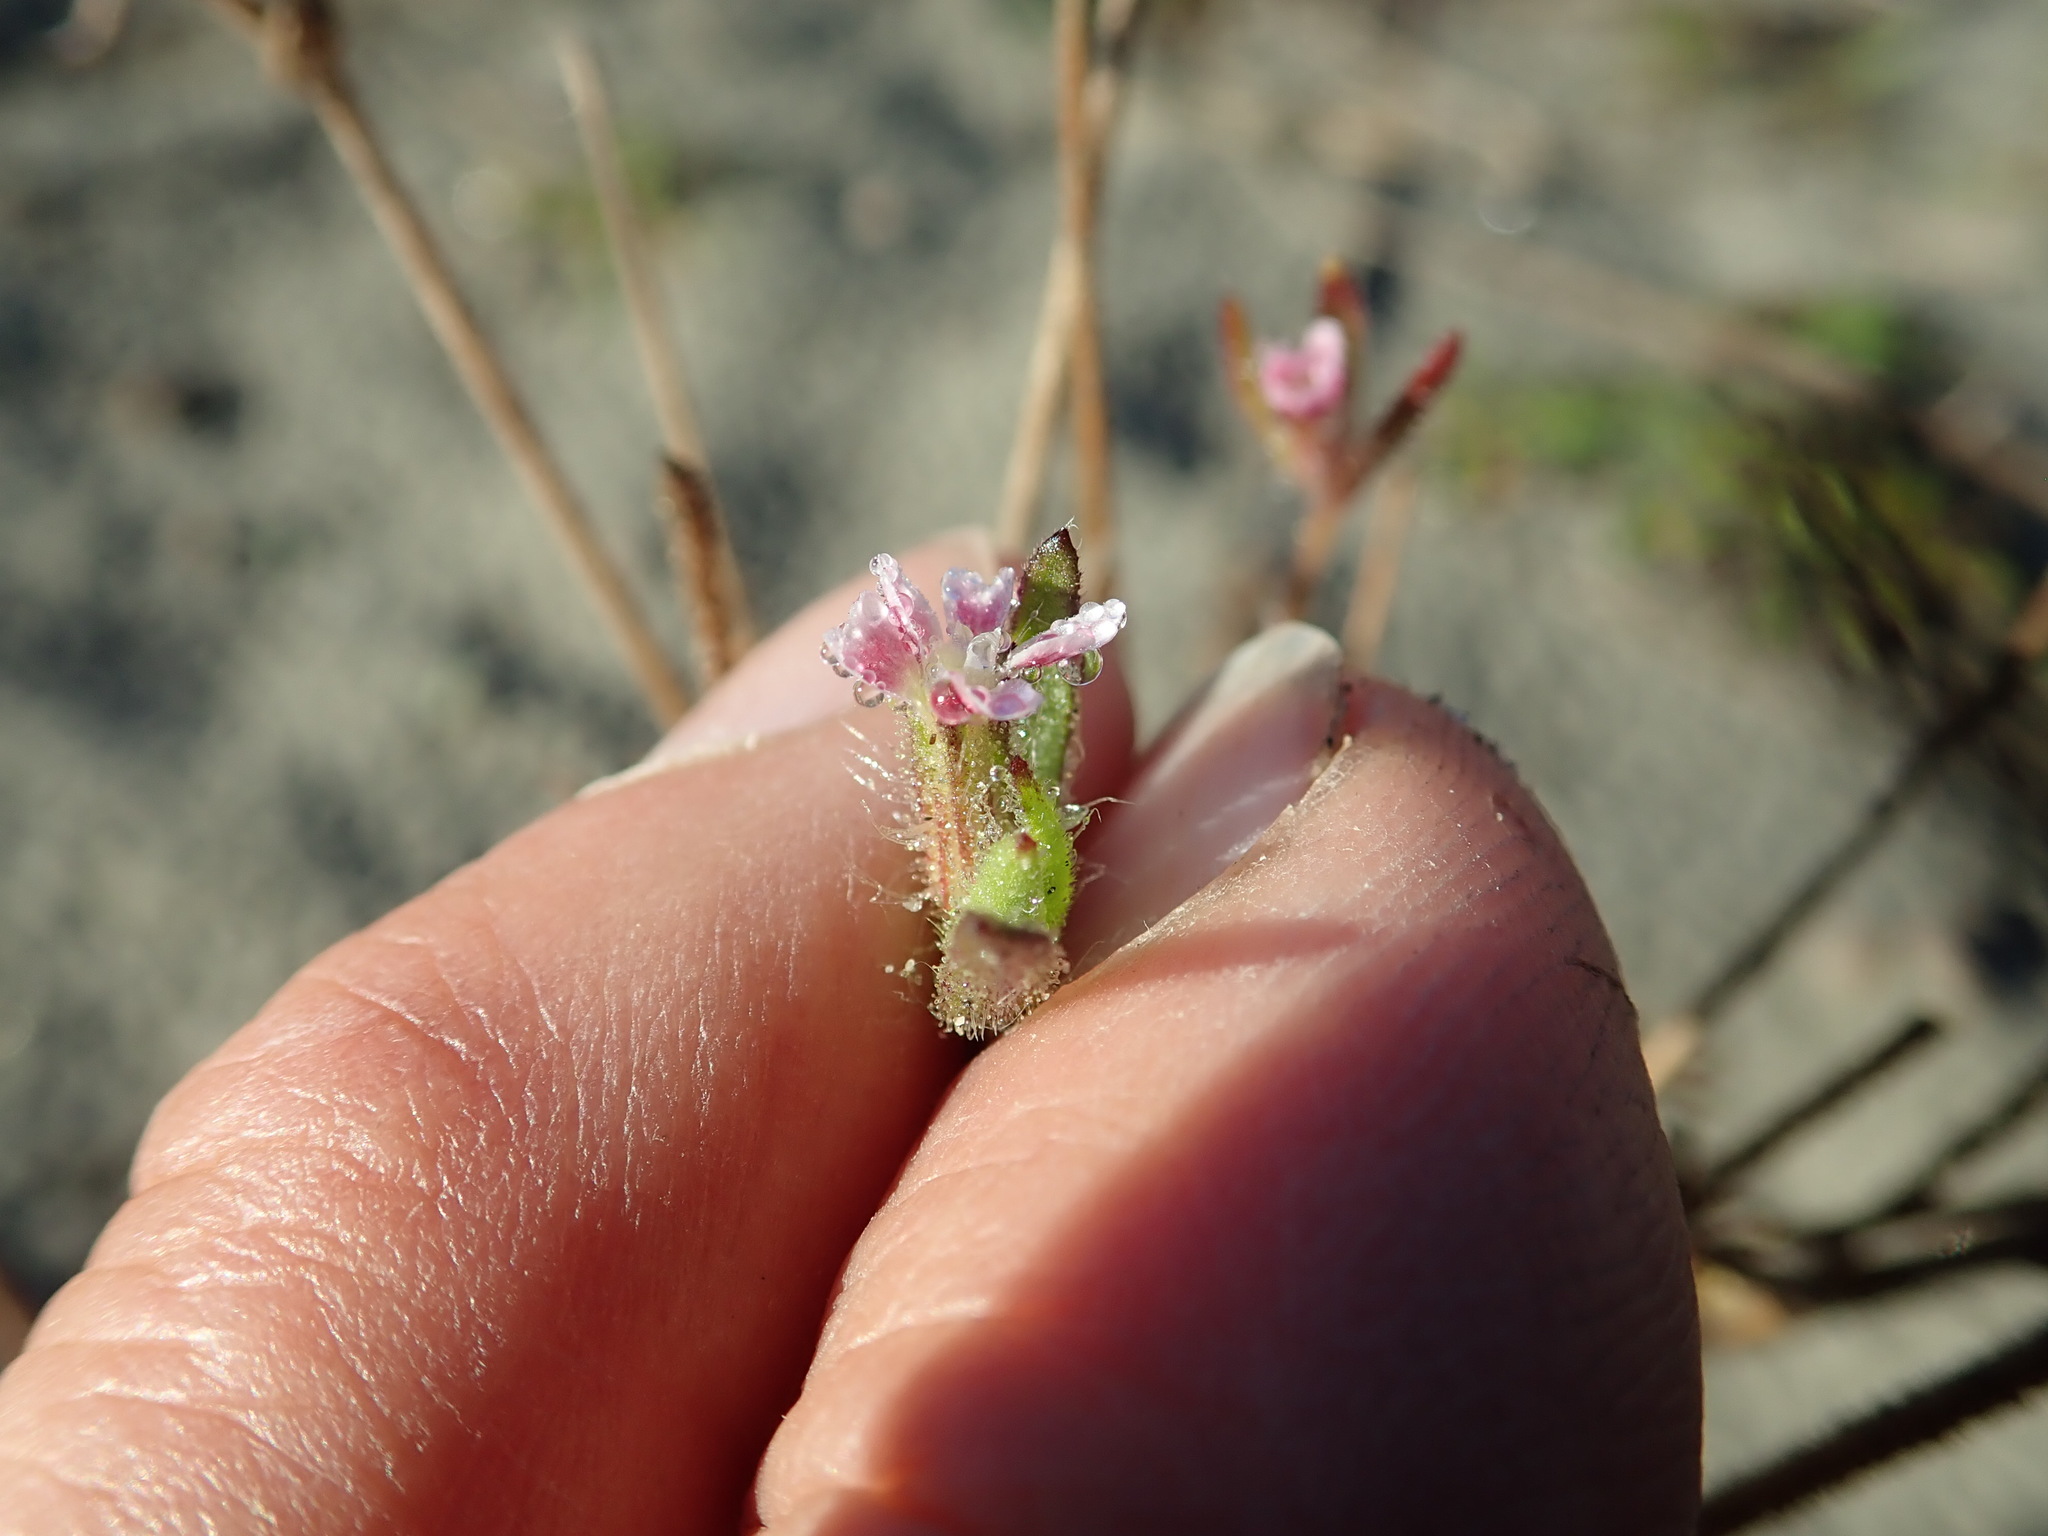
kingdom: Plantae
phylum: Tracheophyta
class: Magnoliopsida
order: Caryophyllales
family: Caryophyllaceae
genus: Silene
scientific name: Silene gallica
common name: Small-flowered catchfly
